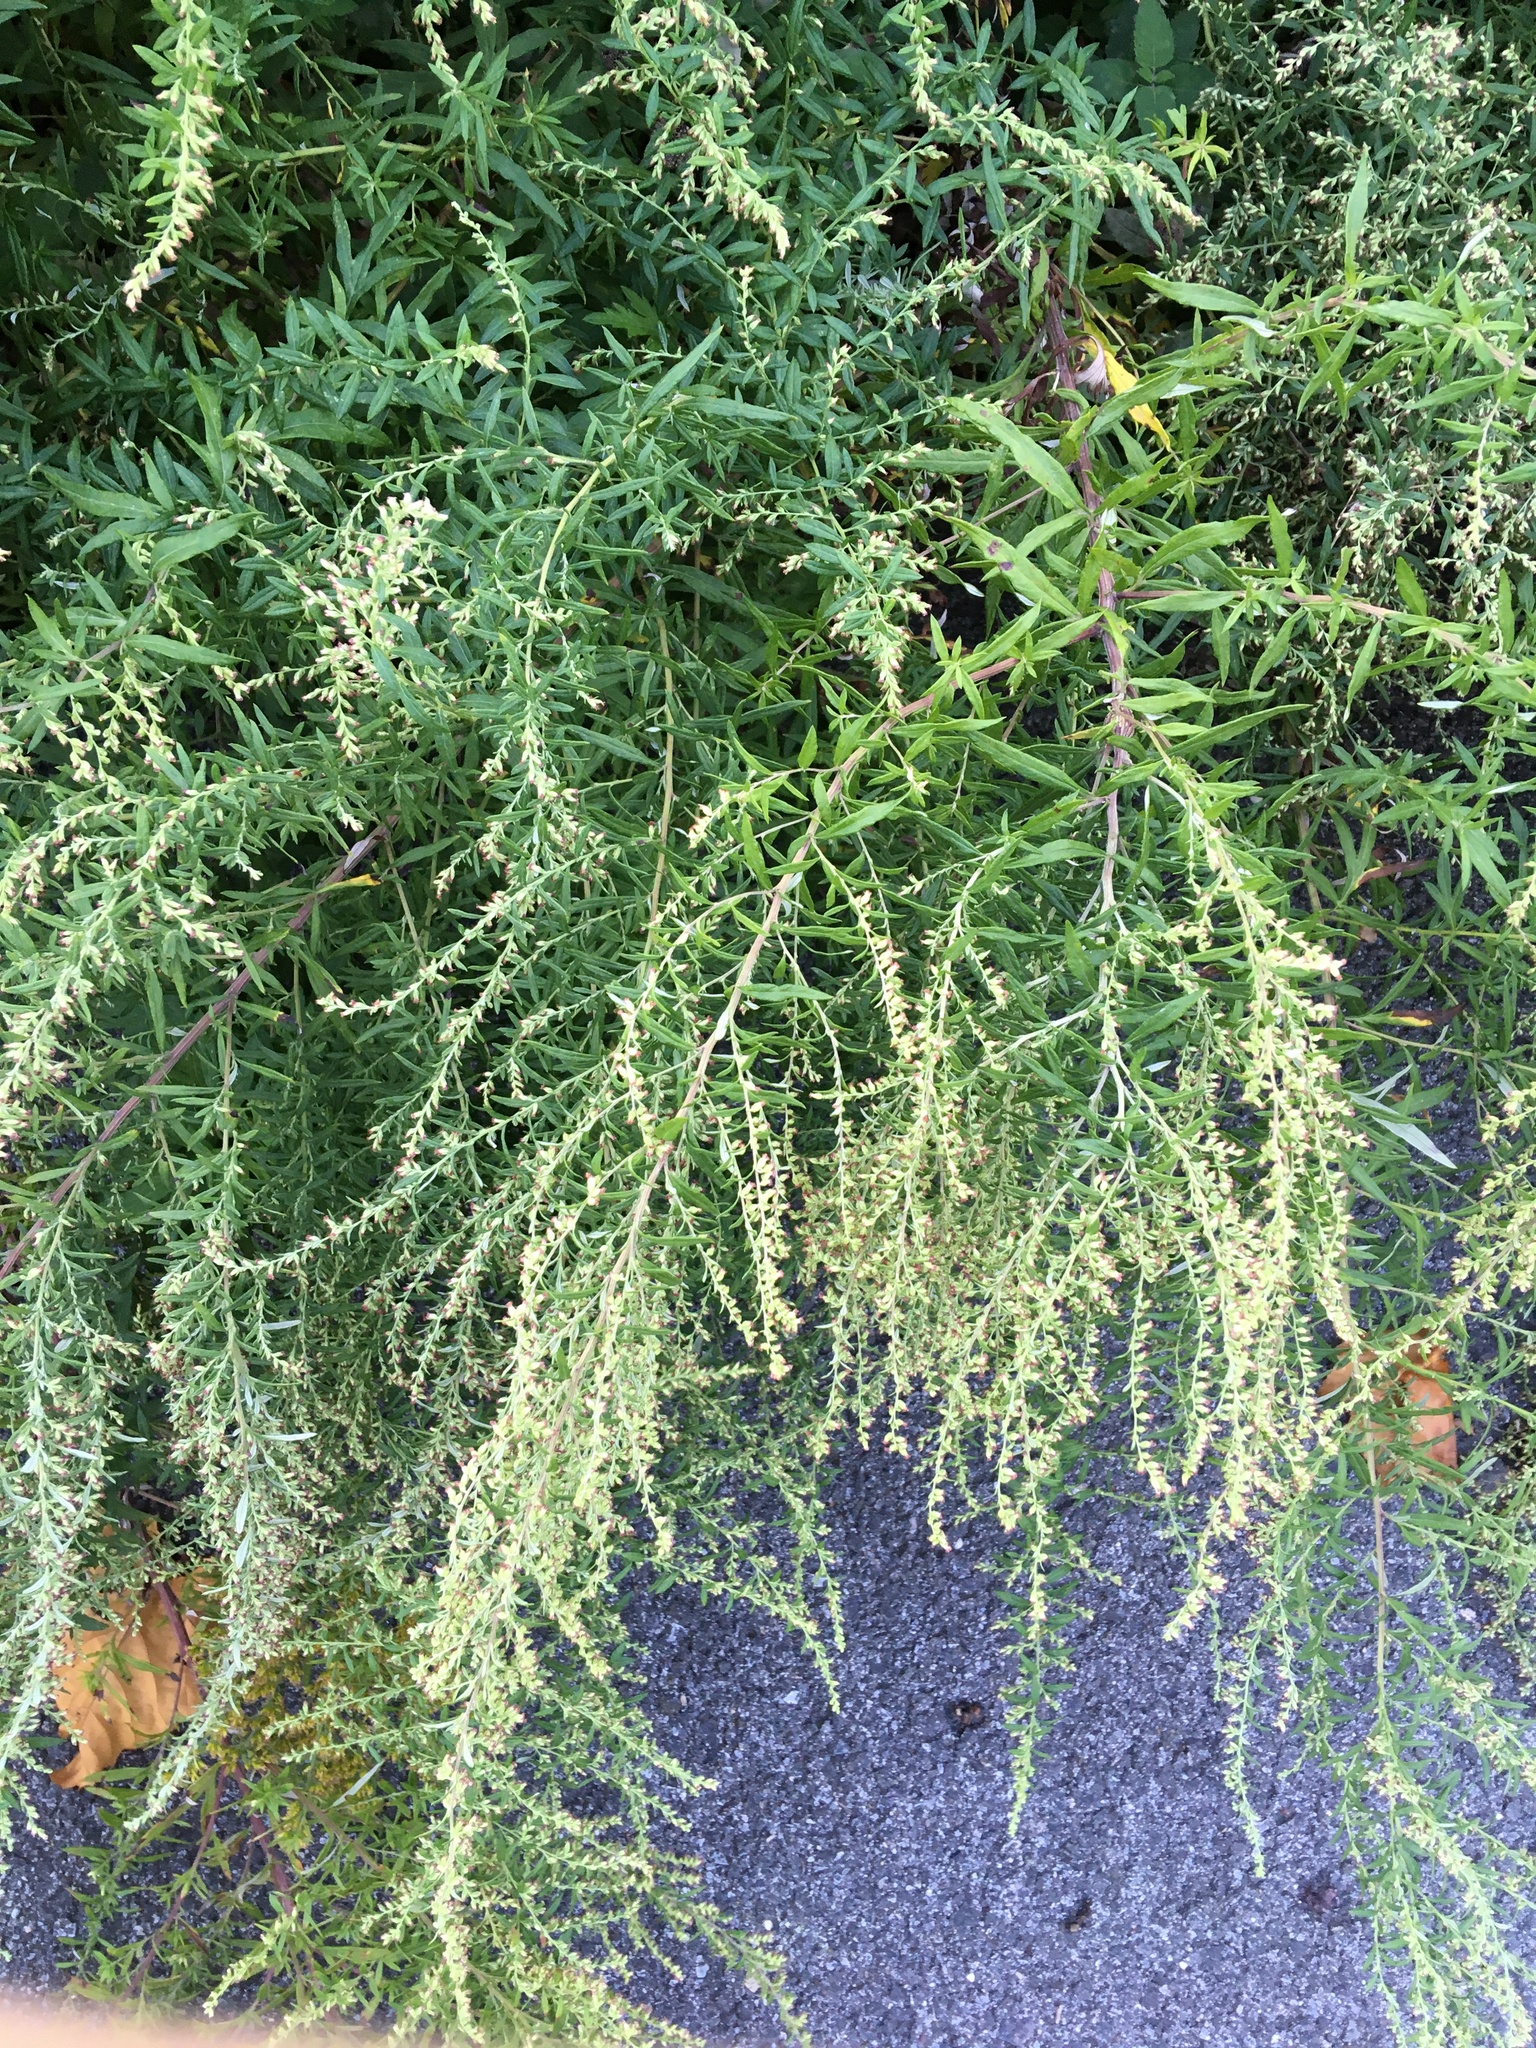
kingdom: Plantae
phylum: Tracheophyta
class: Magnoliopsida
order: Asterales
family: Asteraceae
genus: Artemisia
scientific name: Artemisia vulgaris
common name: Mugwort
